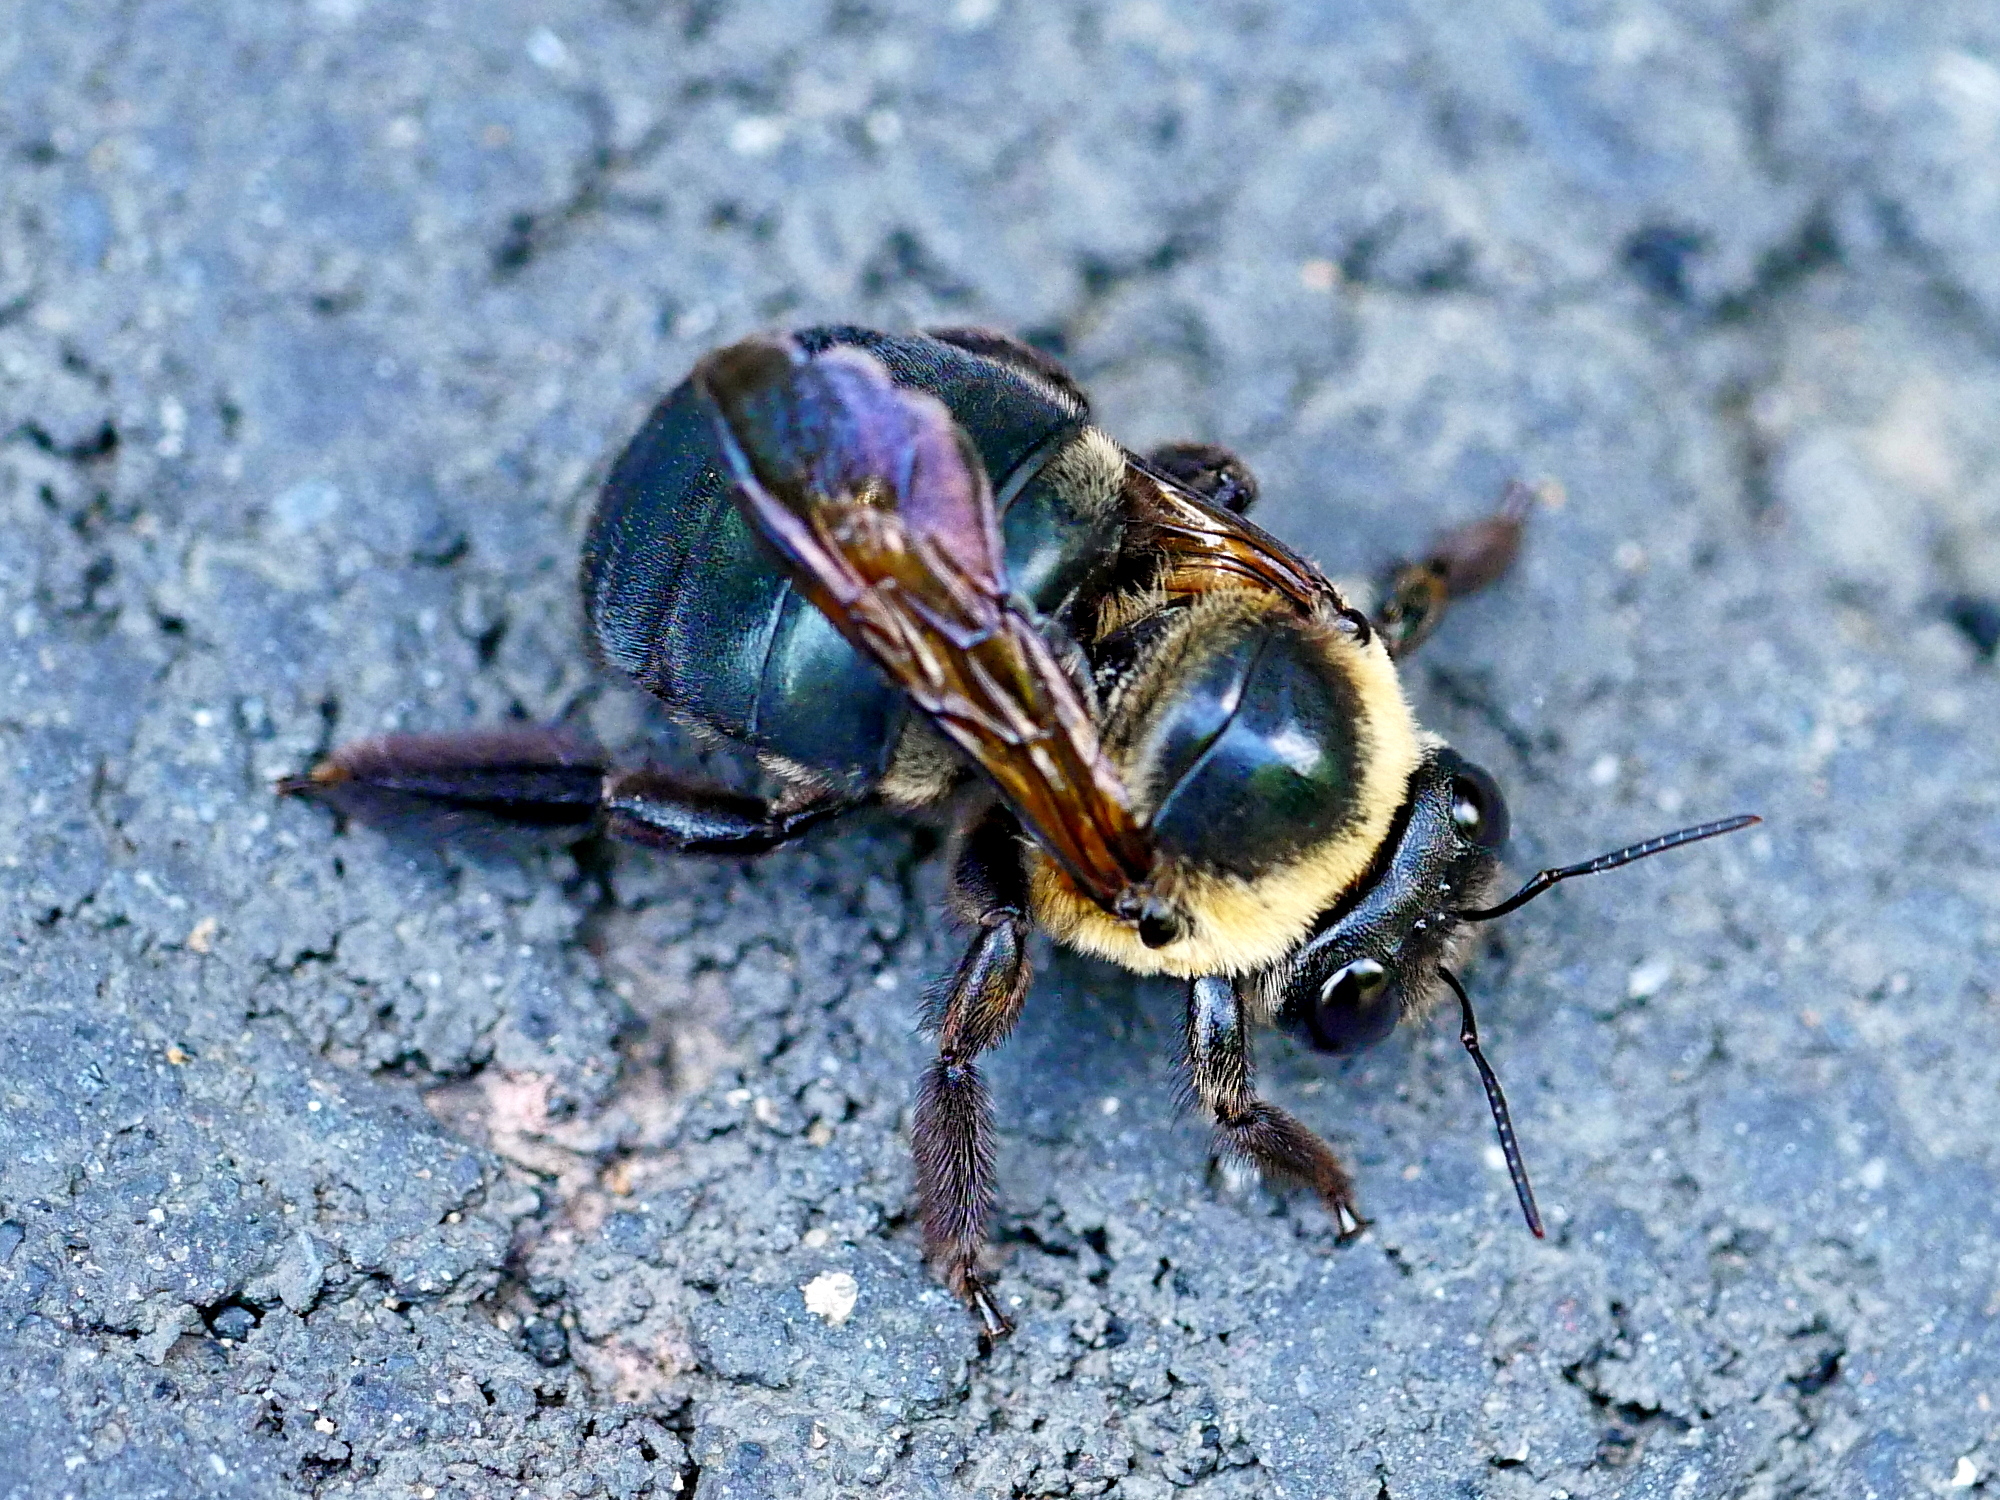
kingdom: Animalia
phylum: Arthropoda
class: Insecta
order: Hymenoptera
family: Apidae
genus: Xylocopa
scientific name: Xylocopa dejeanii
